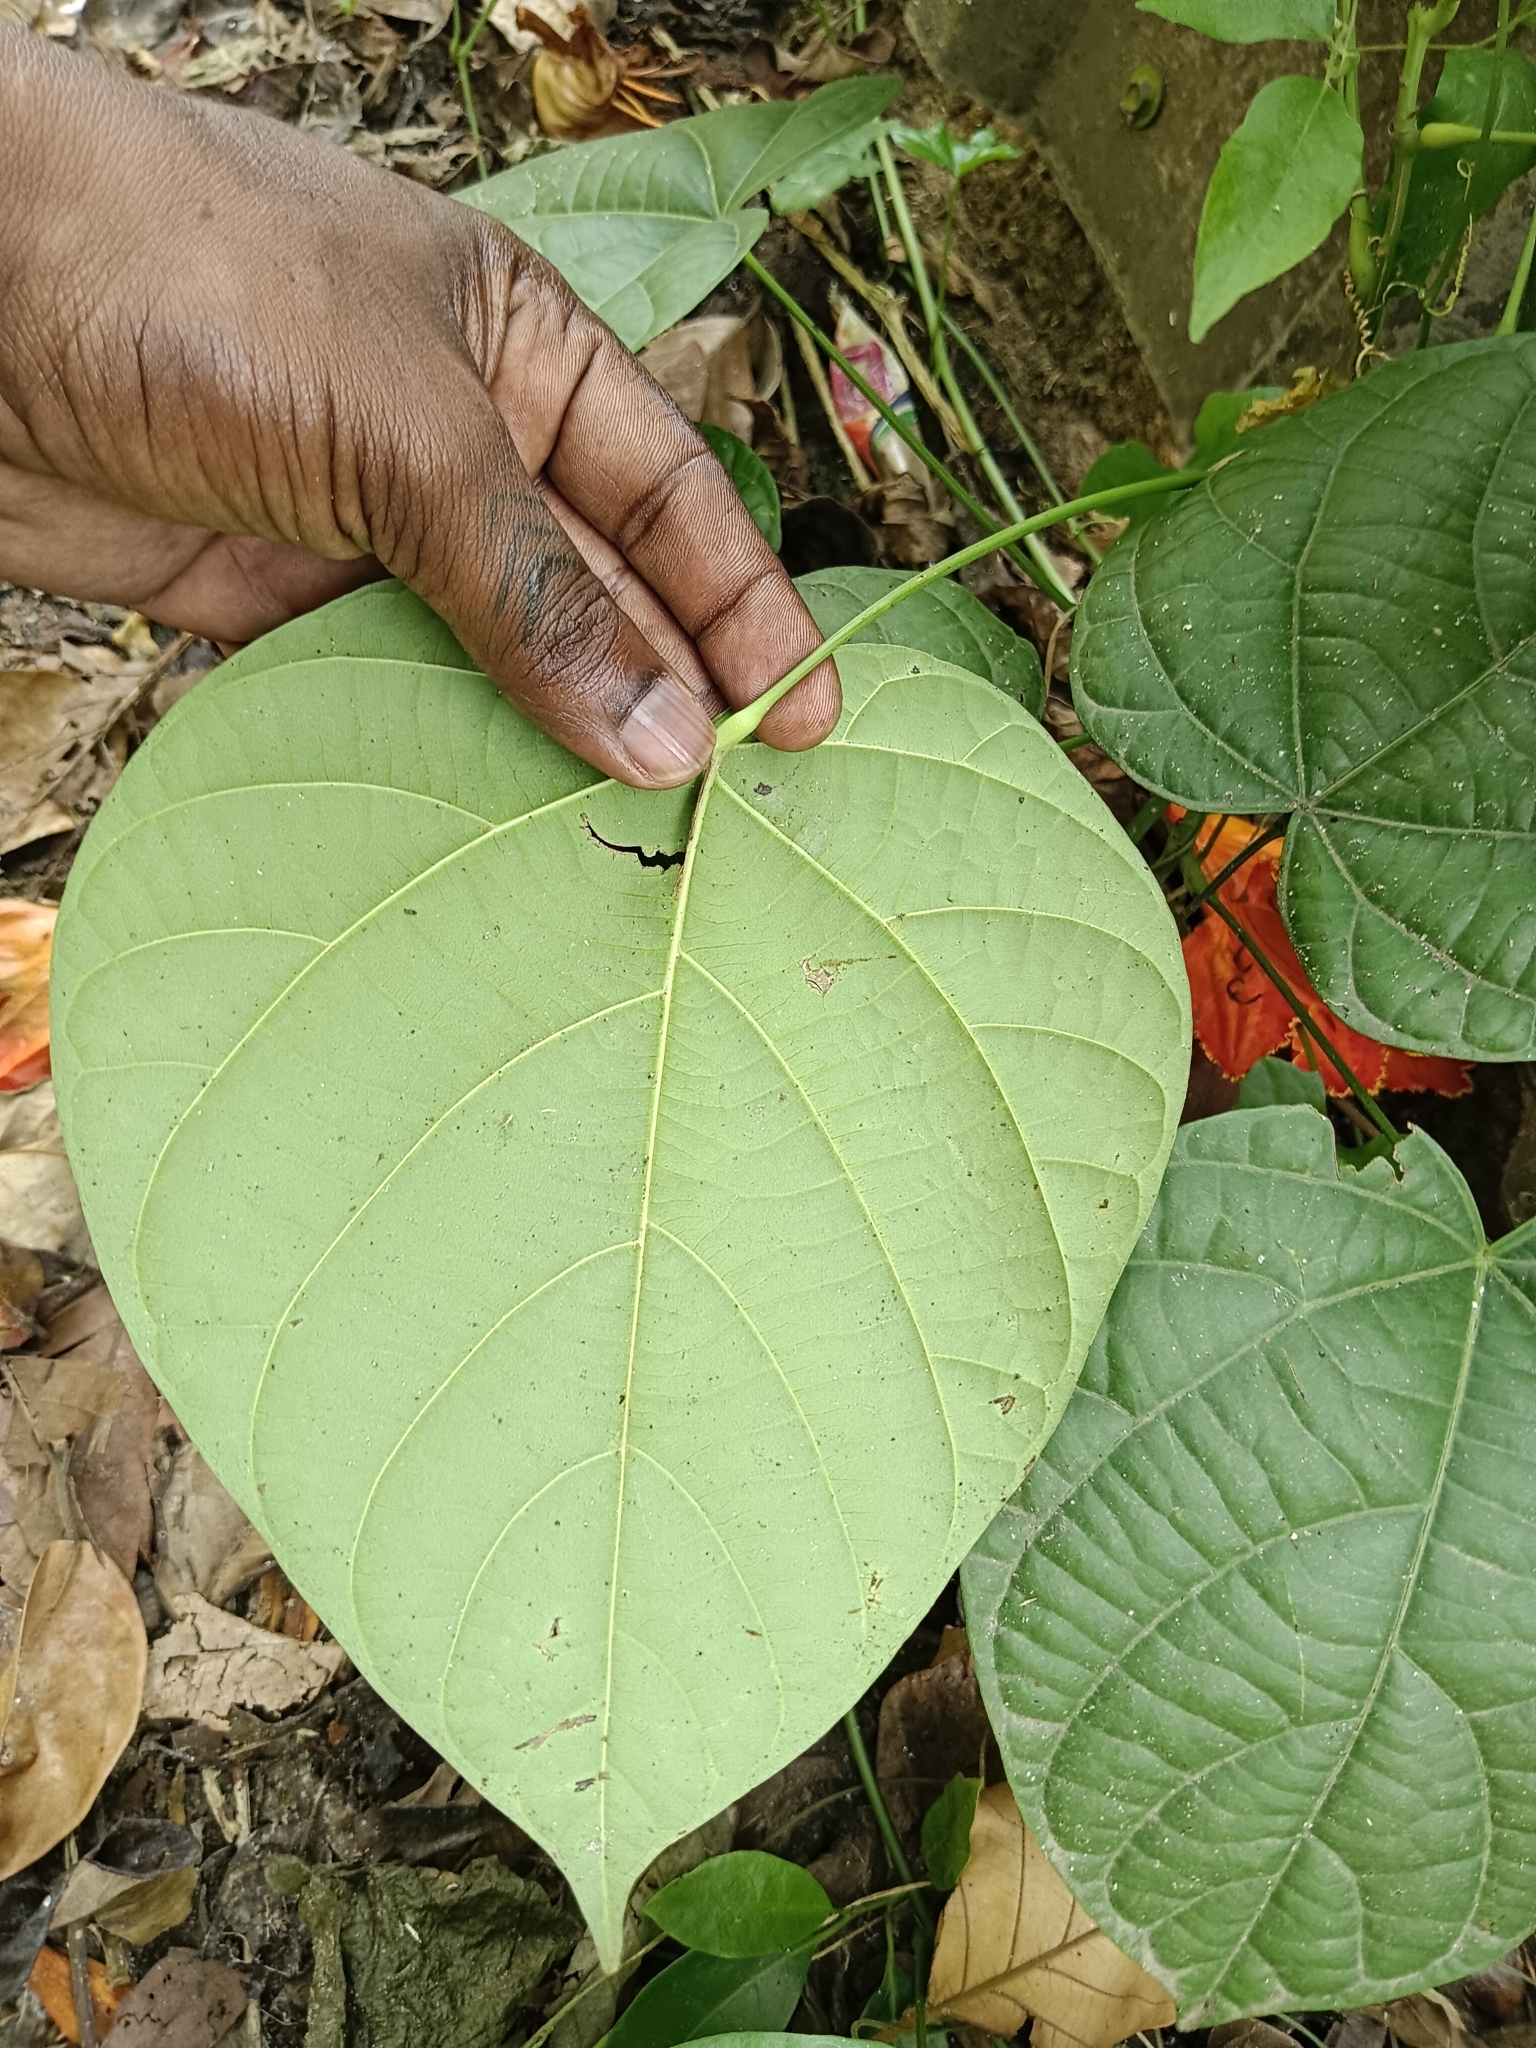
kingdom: Plantae
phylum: Tracheophyta
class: Magnoliopsida
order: Ranunculales
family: Menispermaceae
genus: Anamirta
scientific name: Anamirta cocculus
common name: Levantnut
